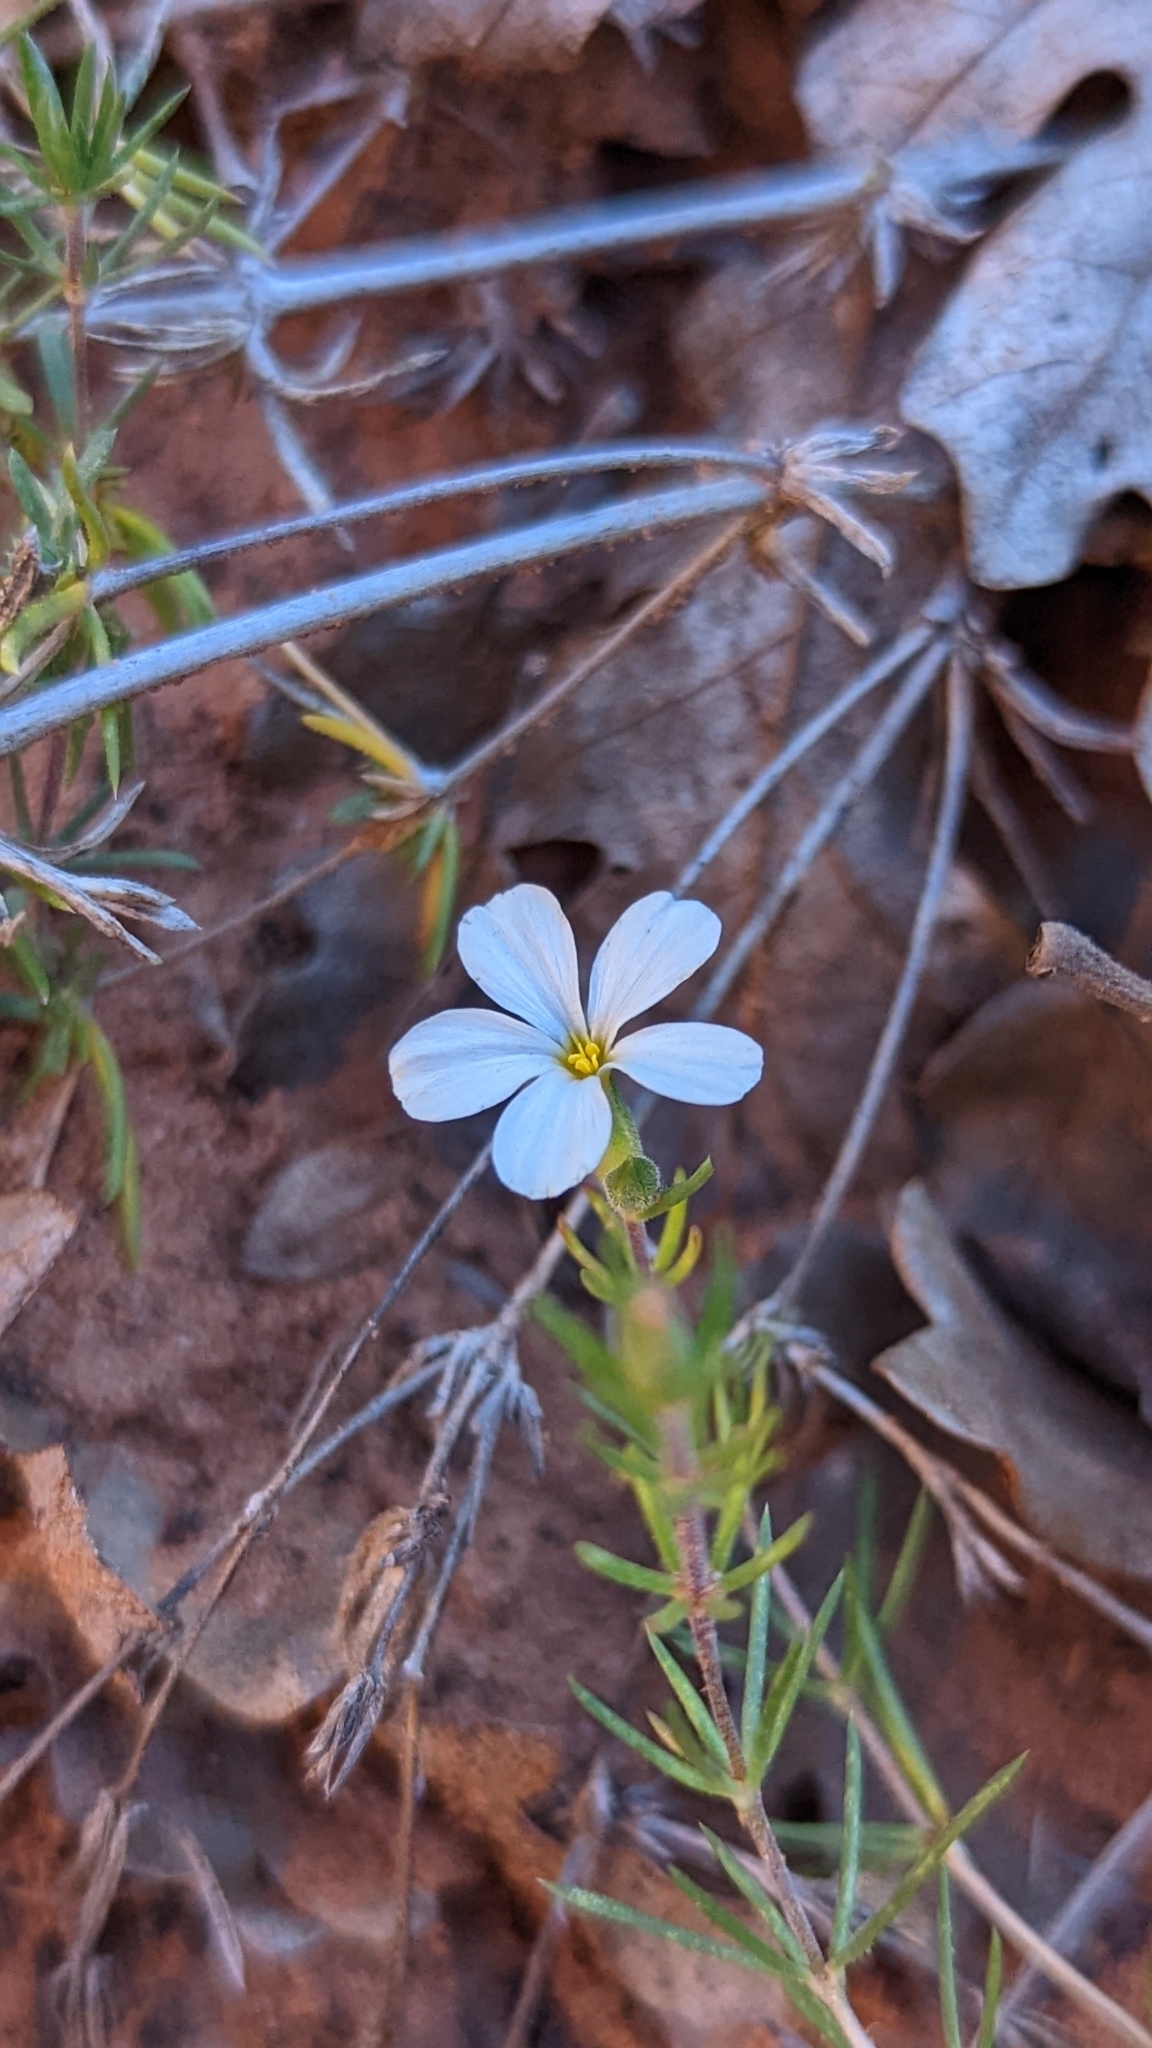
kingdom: Plantae
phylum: Tracheophyta
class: Magnoliopsida
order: Ericales
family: Polemoniaceae
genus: Leptosiphon
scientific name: Leptosiphon nuttallii
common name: Nuttall's linanthus
